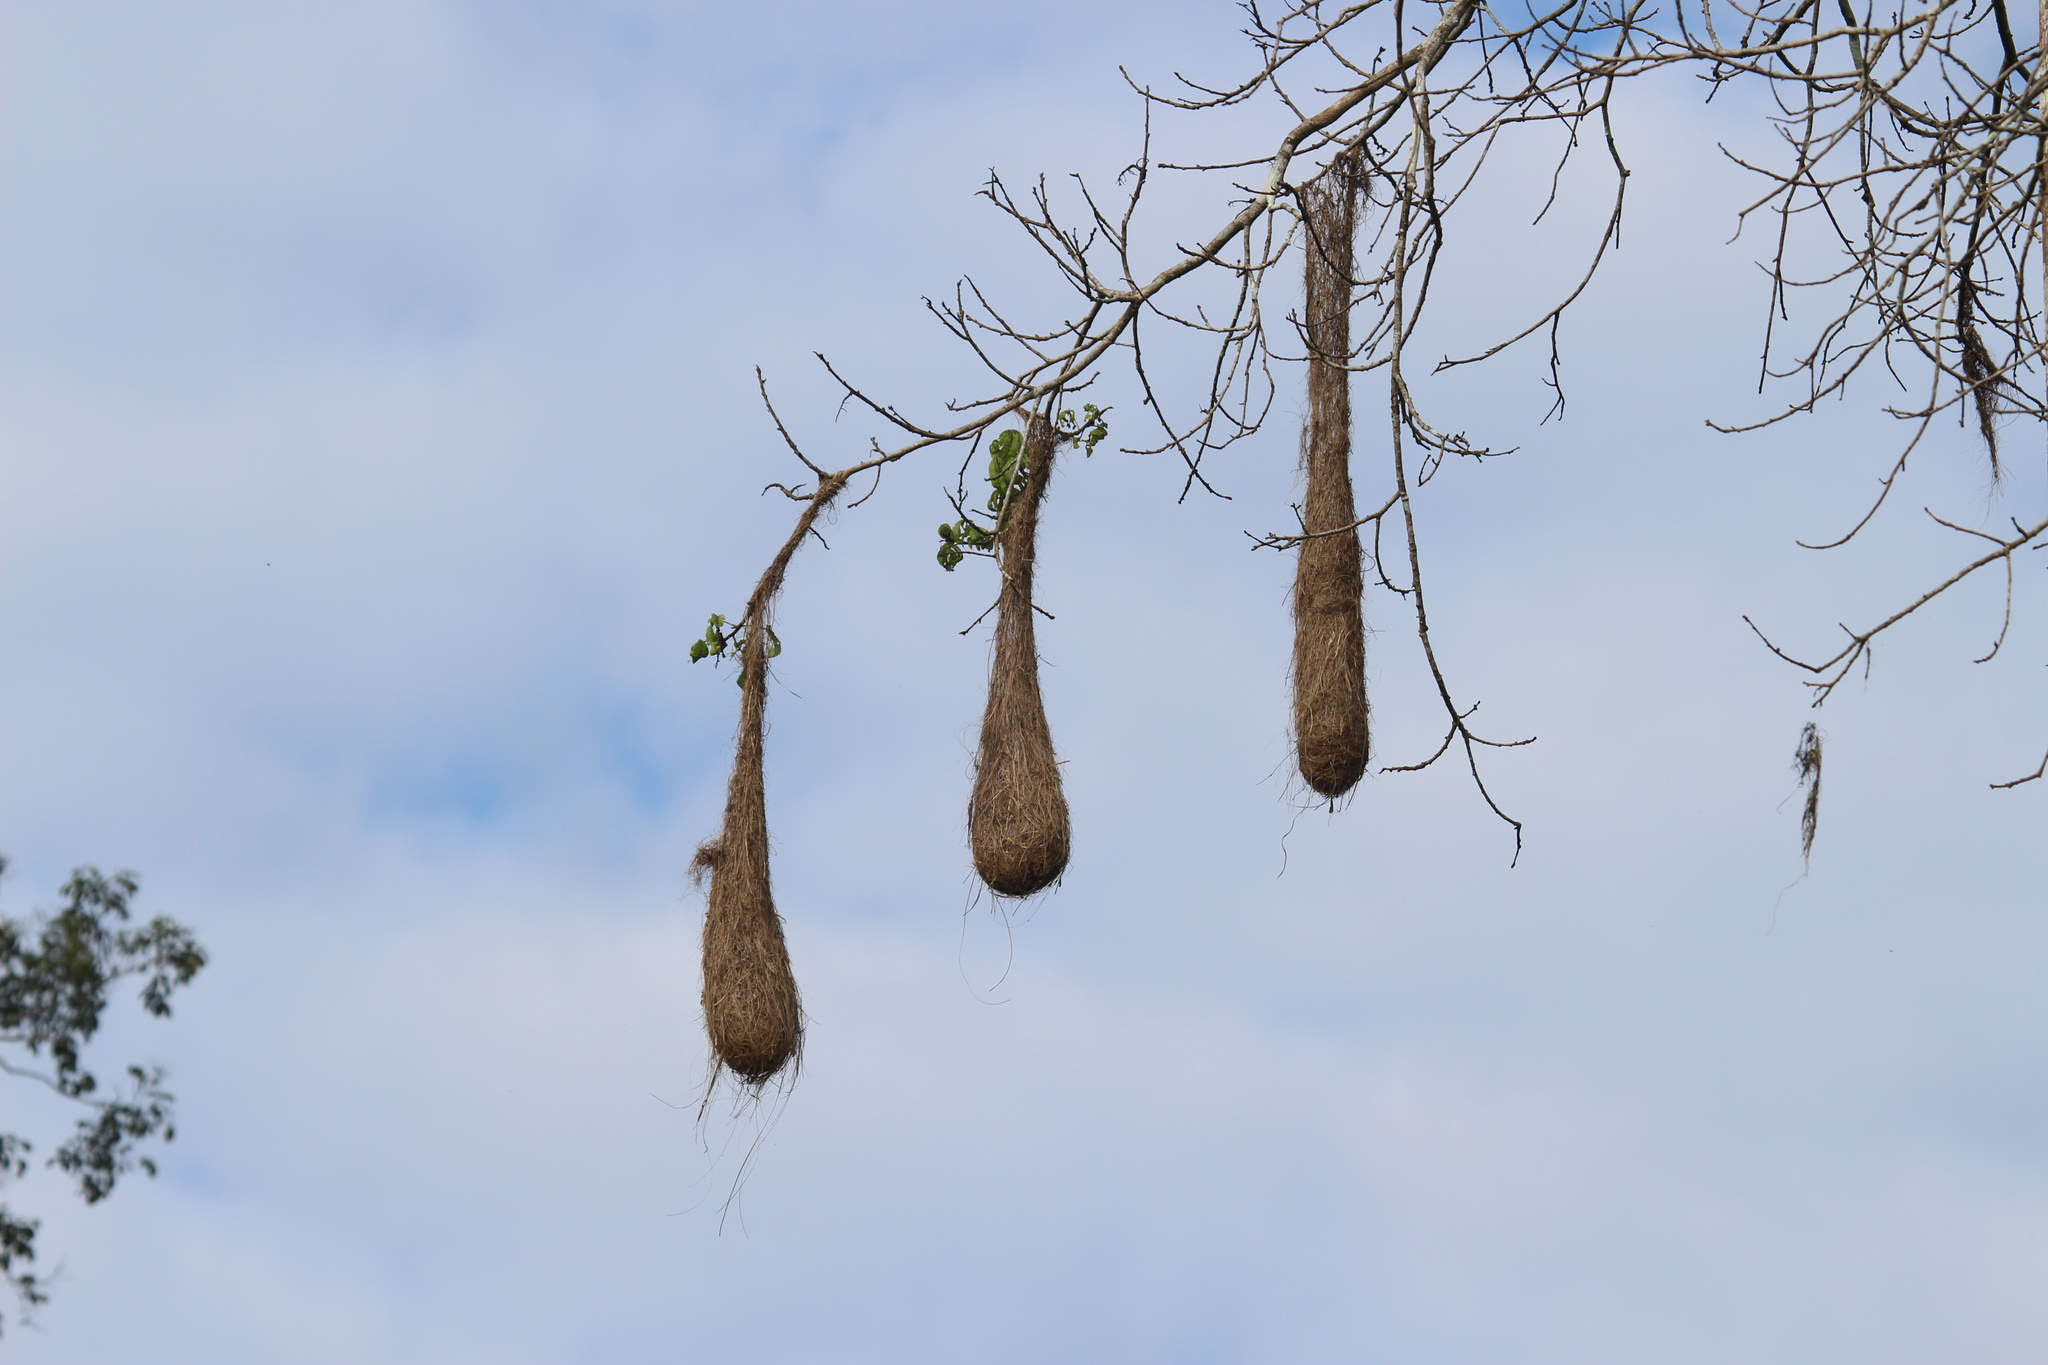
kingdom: Animalia
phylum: Chordata
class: Aves
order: Passeriformes
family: Icteridae
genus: Psarocolius
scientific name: Psarocolius
